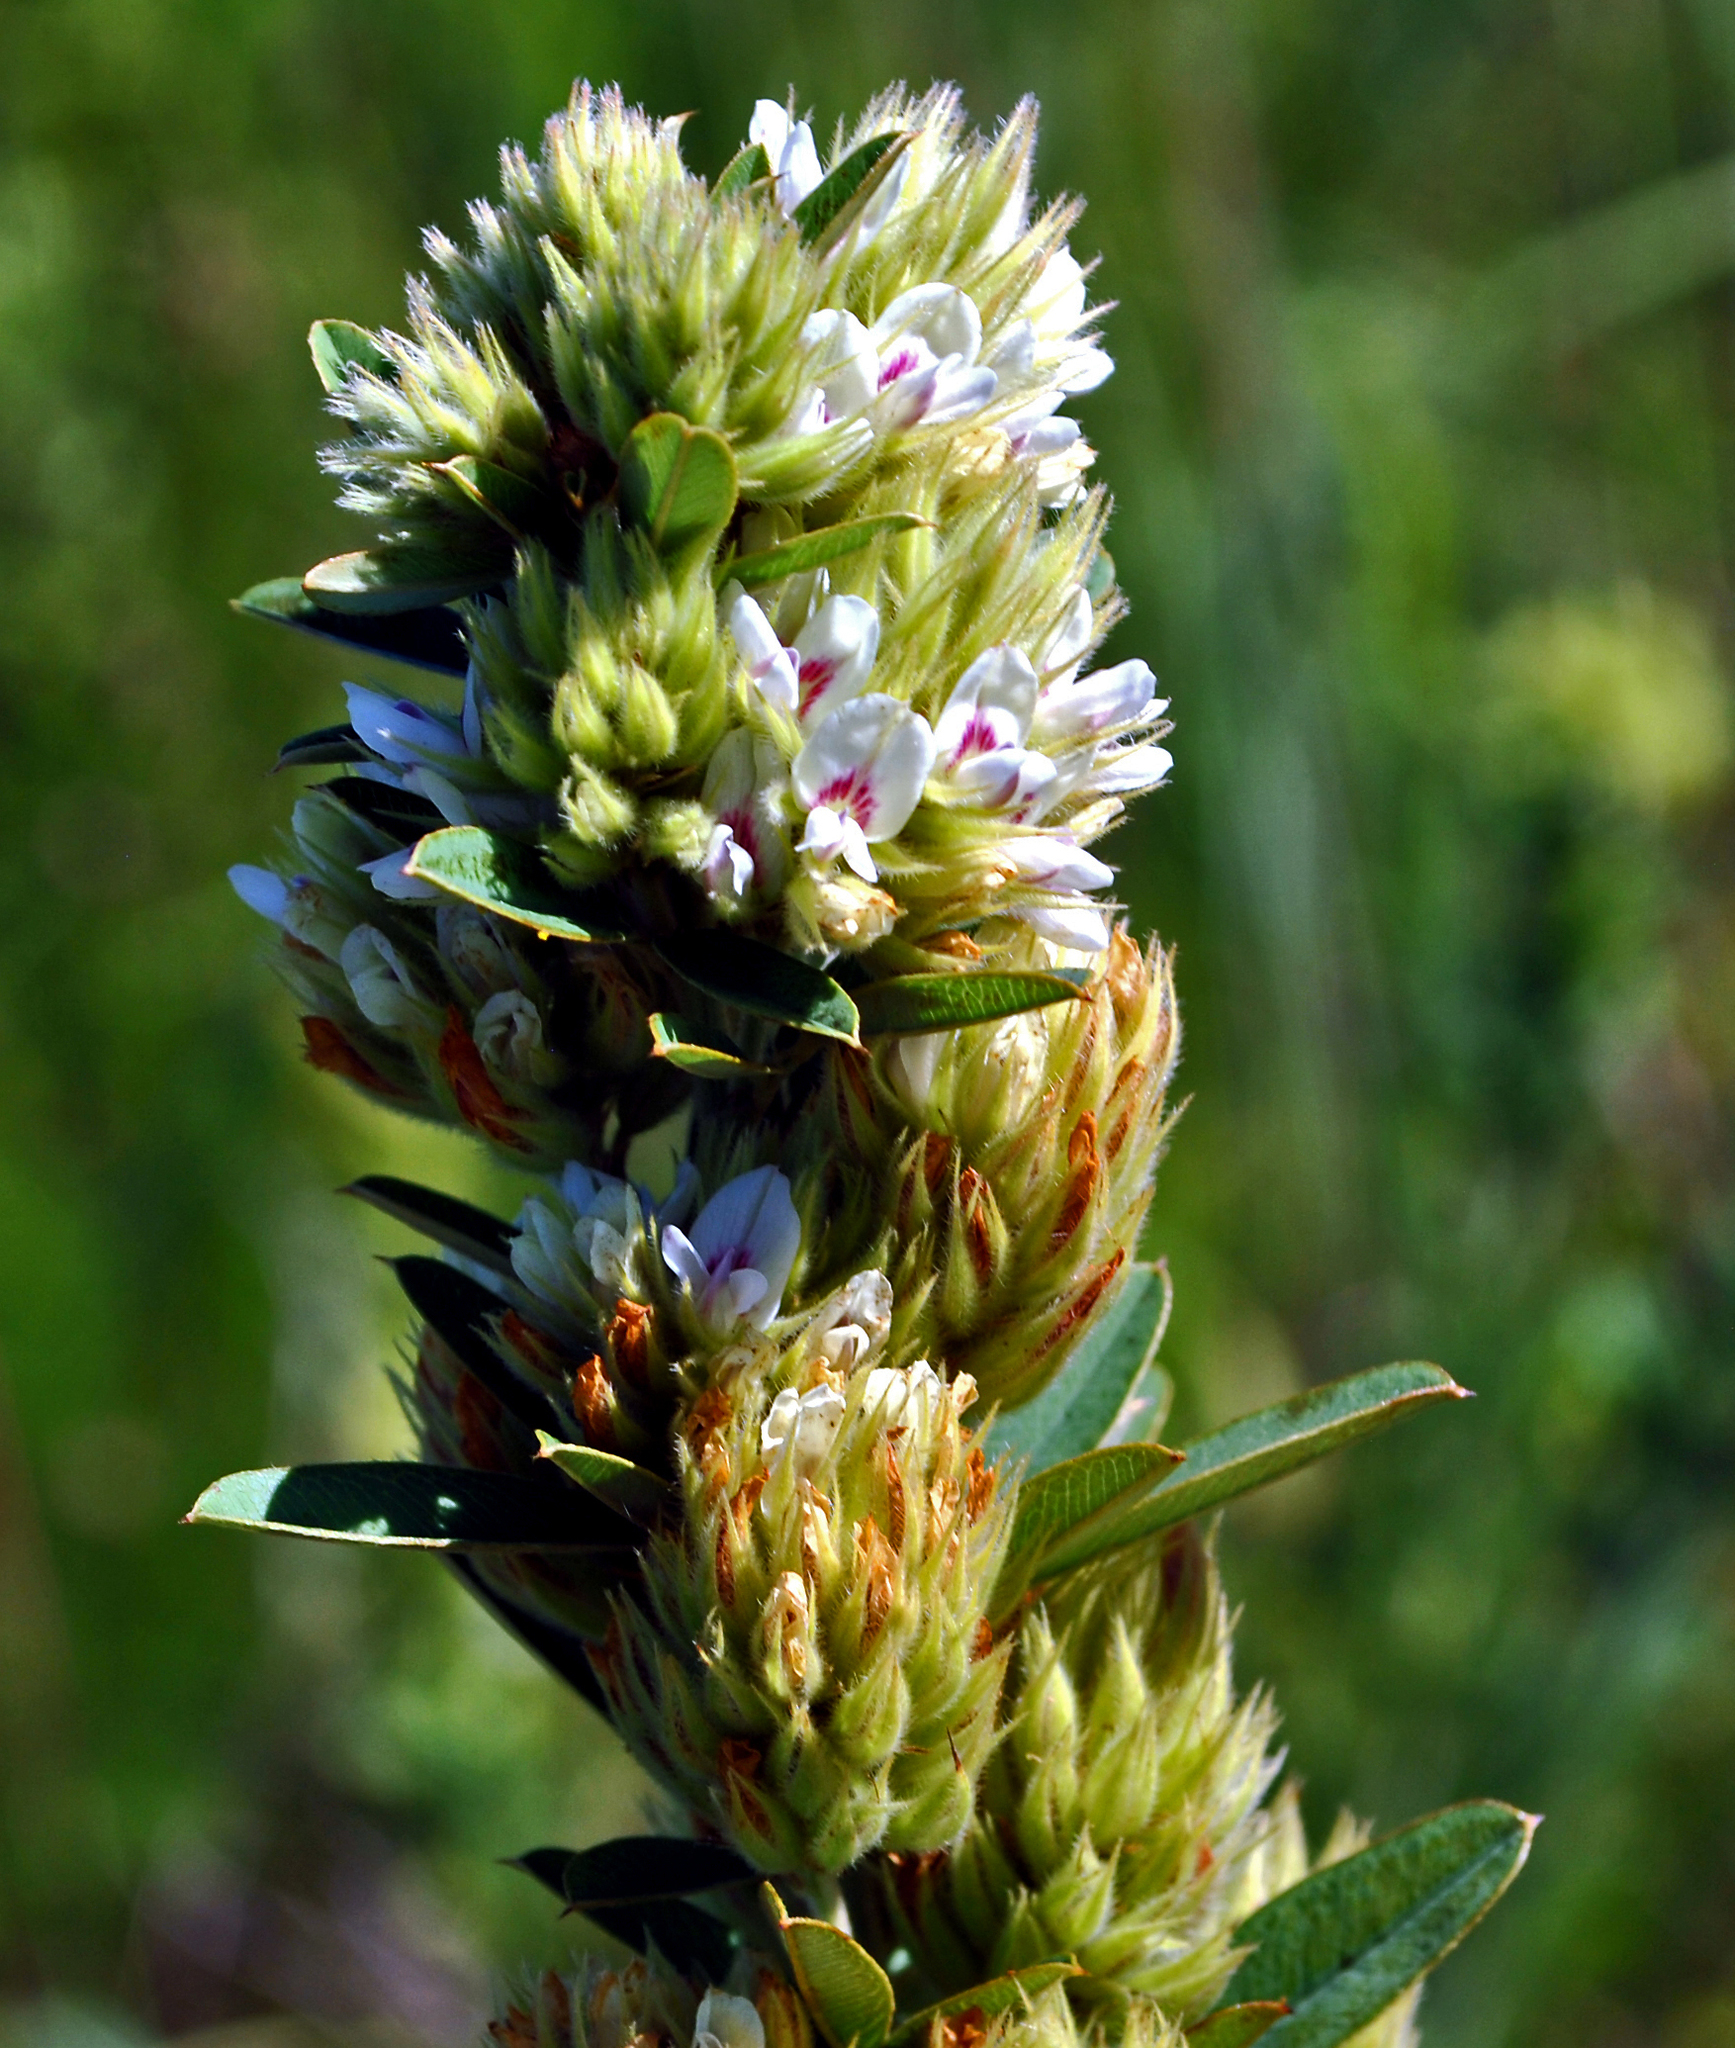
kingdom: Plantae
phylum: Tracheophyta
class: Magnoliopsida
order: Fabales
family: Fabaceae
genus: Lespedeza
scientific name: Lespedeza capitata
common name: Dusty clover
